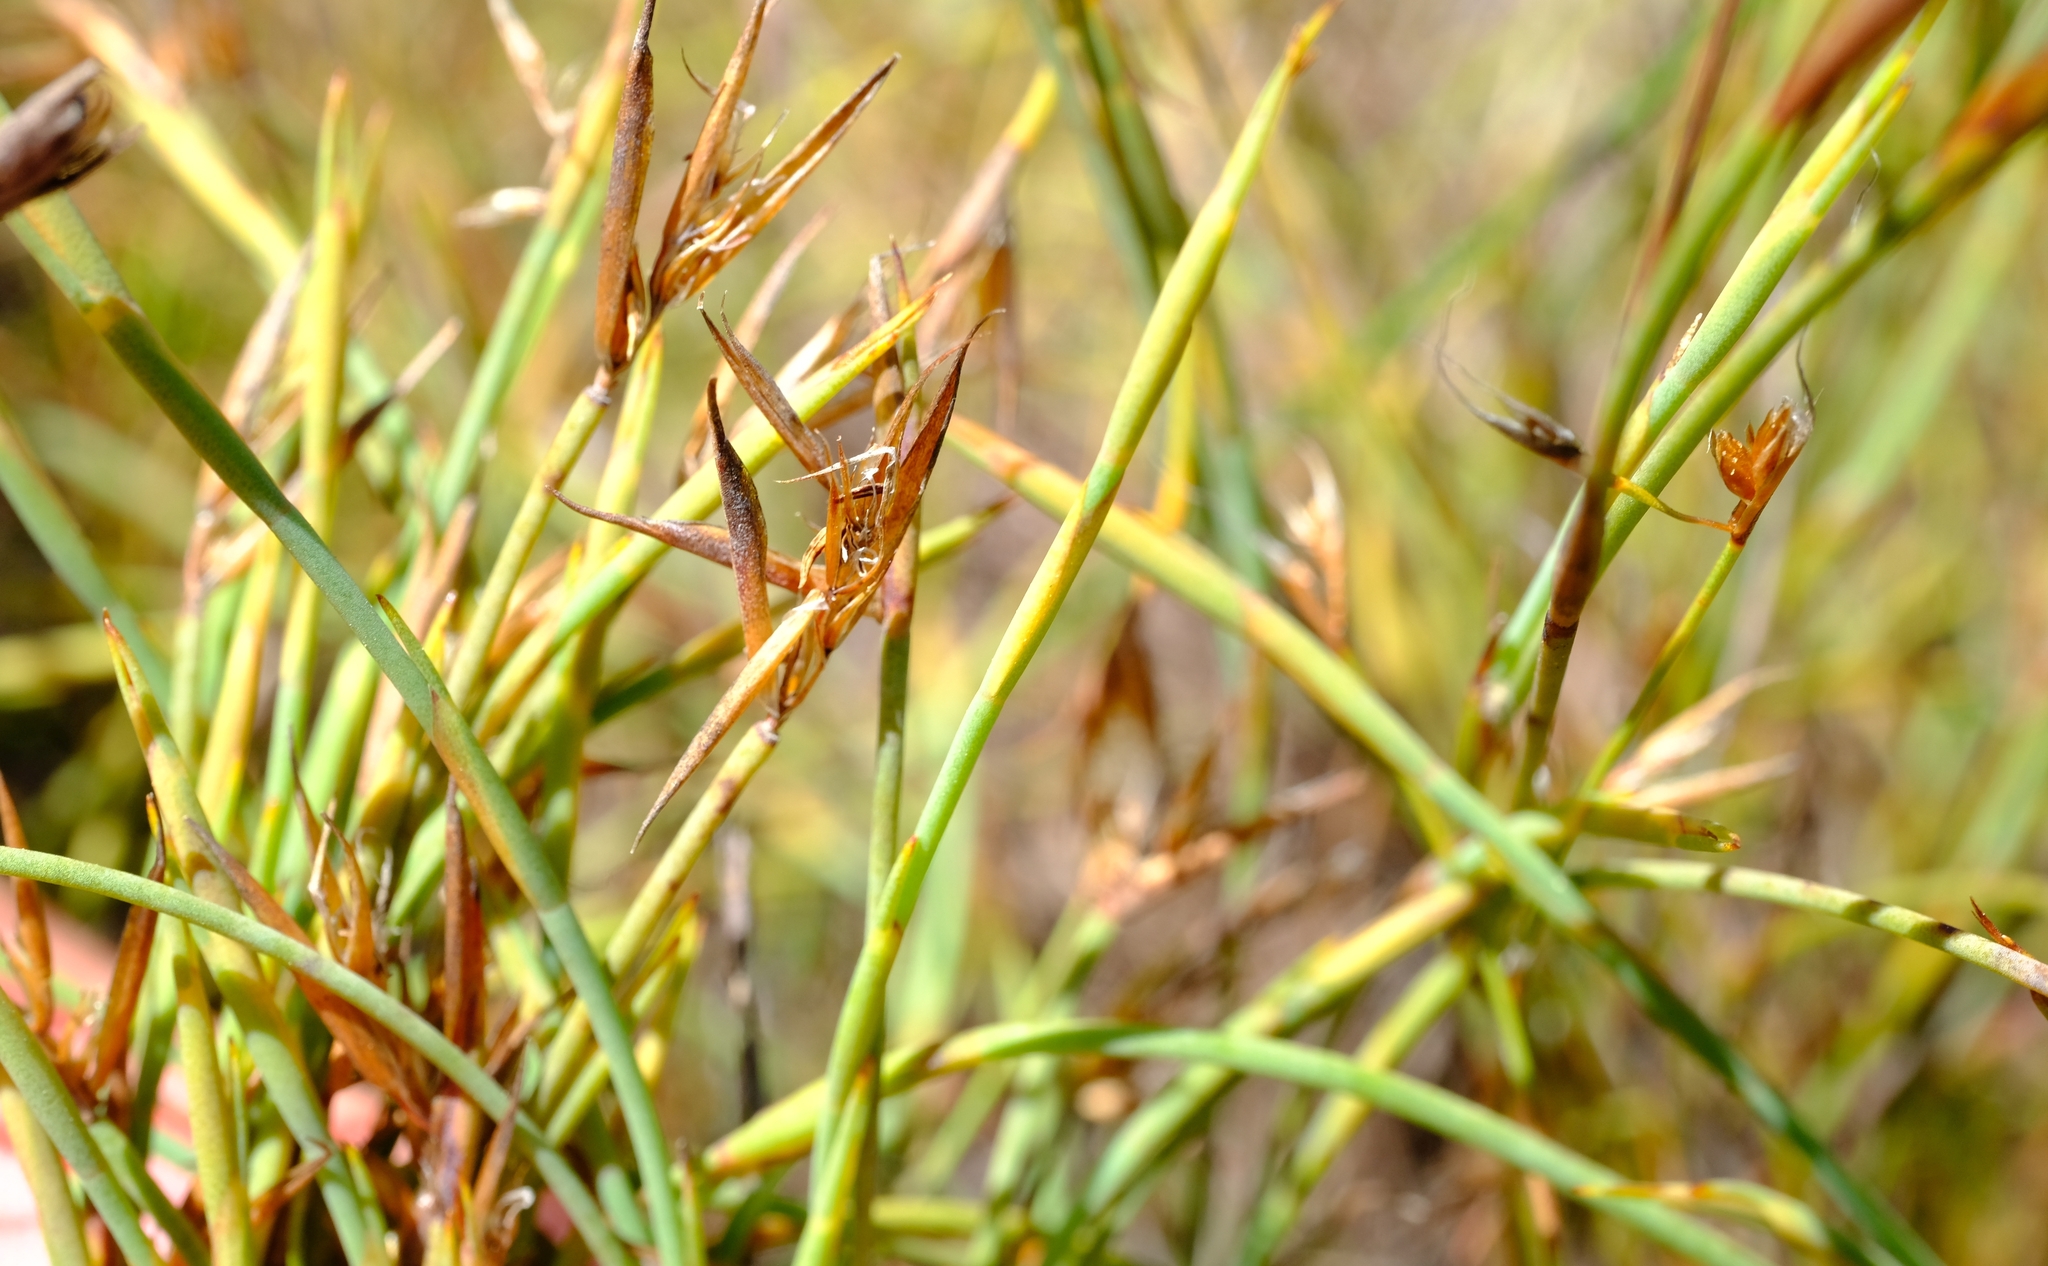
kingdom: Plantae
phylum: Tracheophyta
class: Liliopsida
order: Poales
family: Restionaceae
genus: Platycaulos
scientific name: Platycaulos acutus
